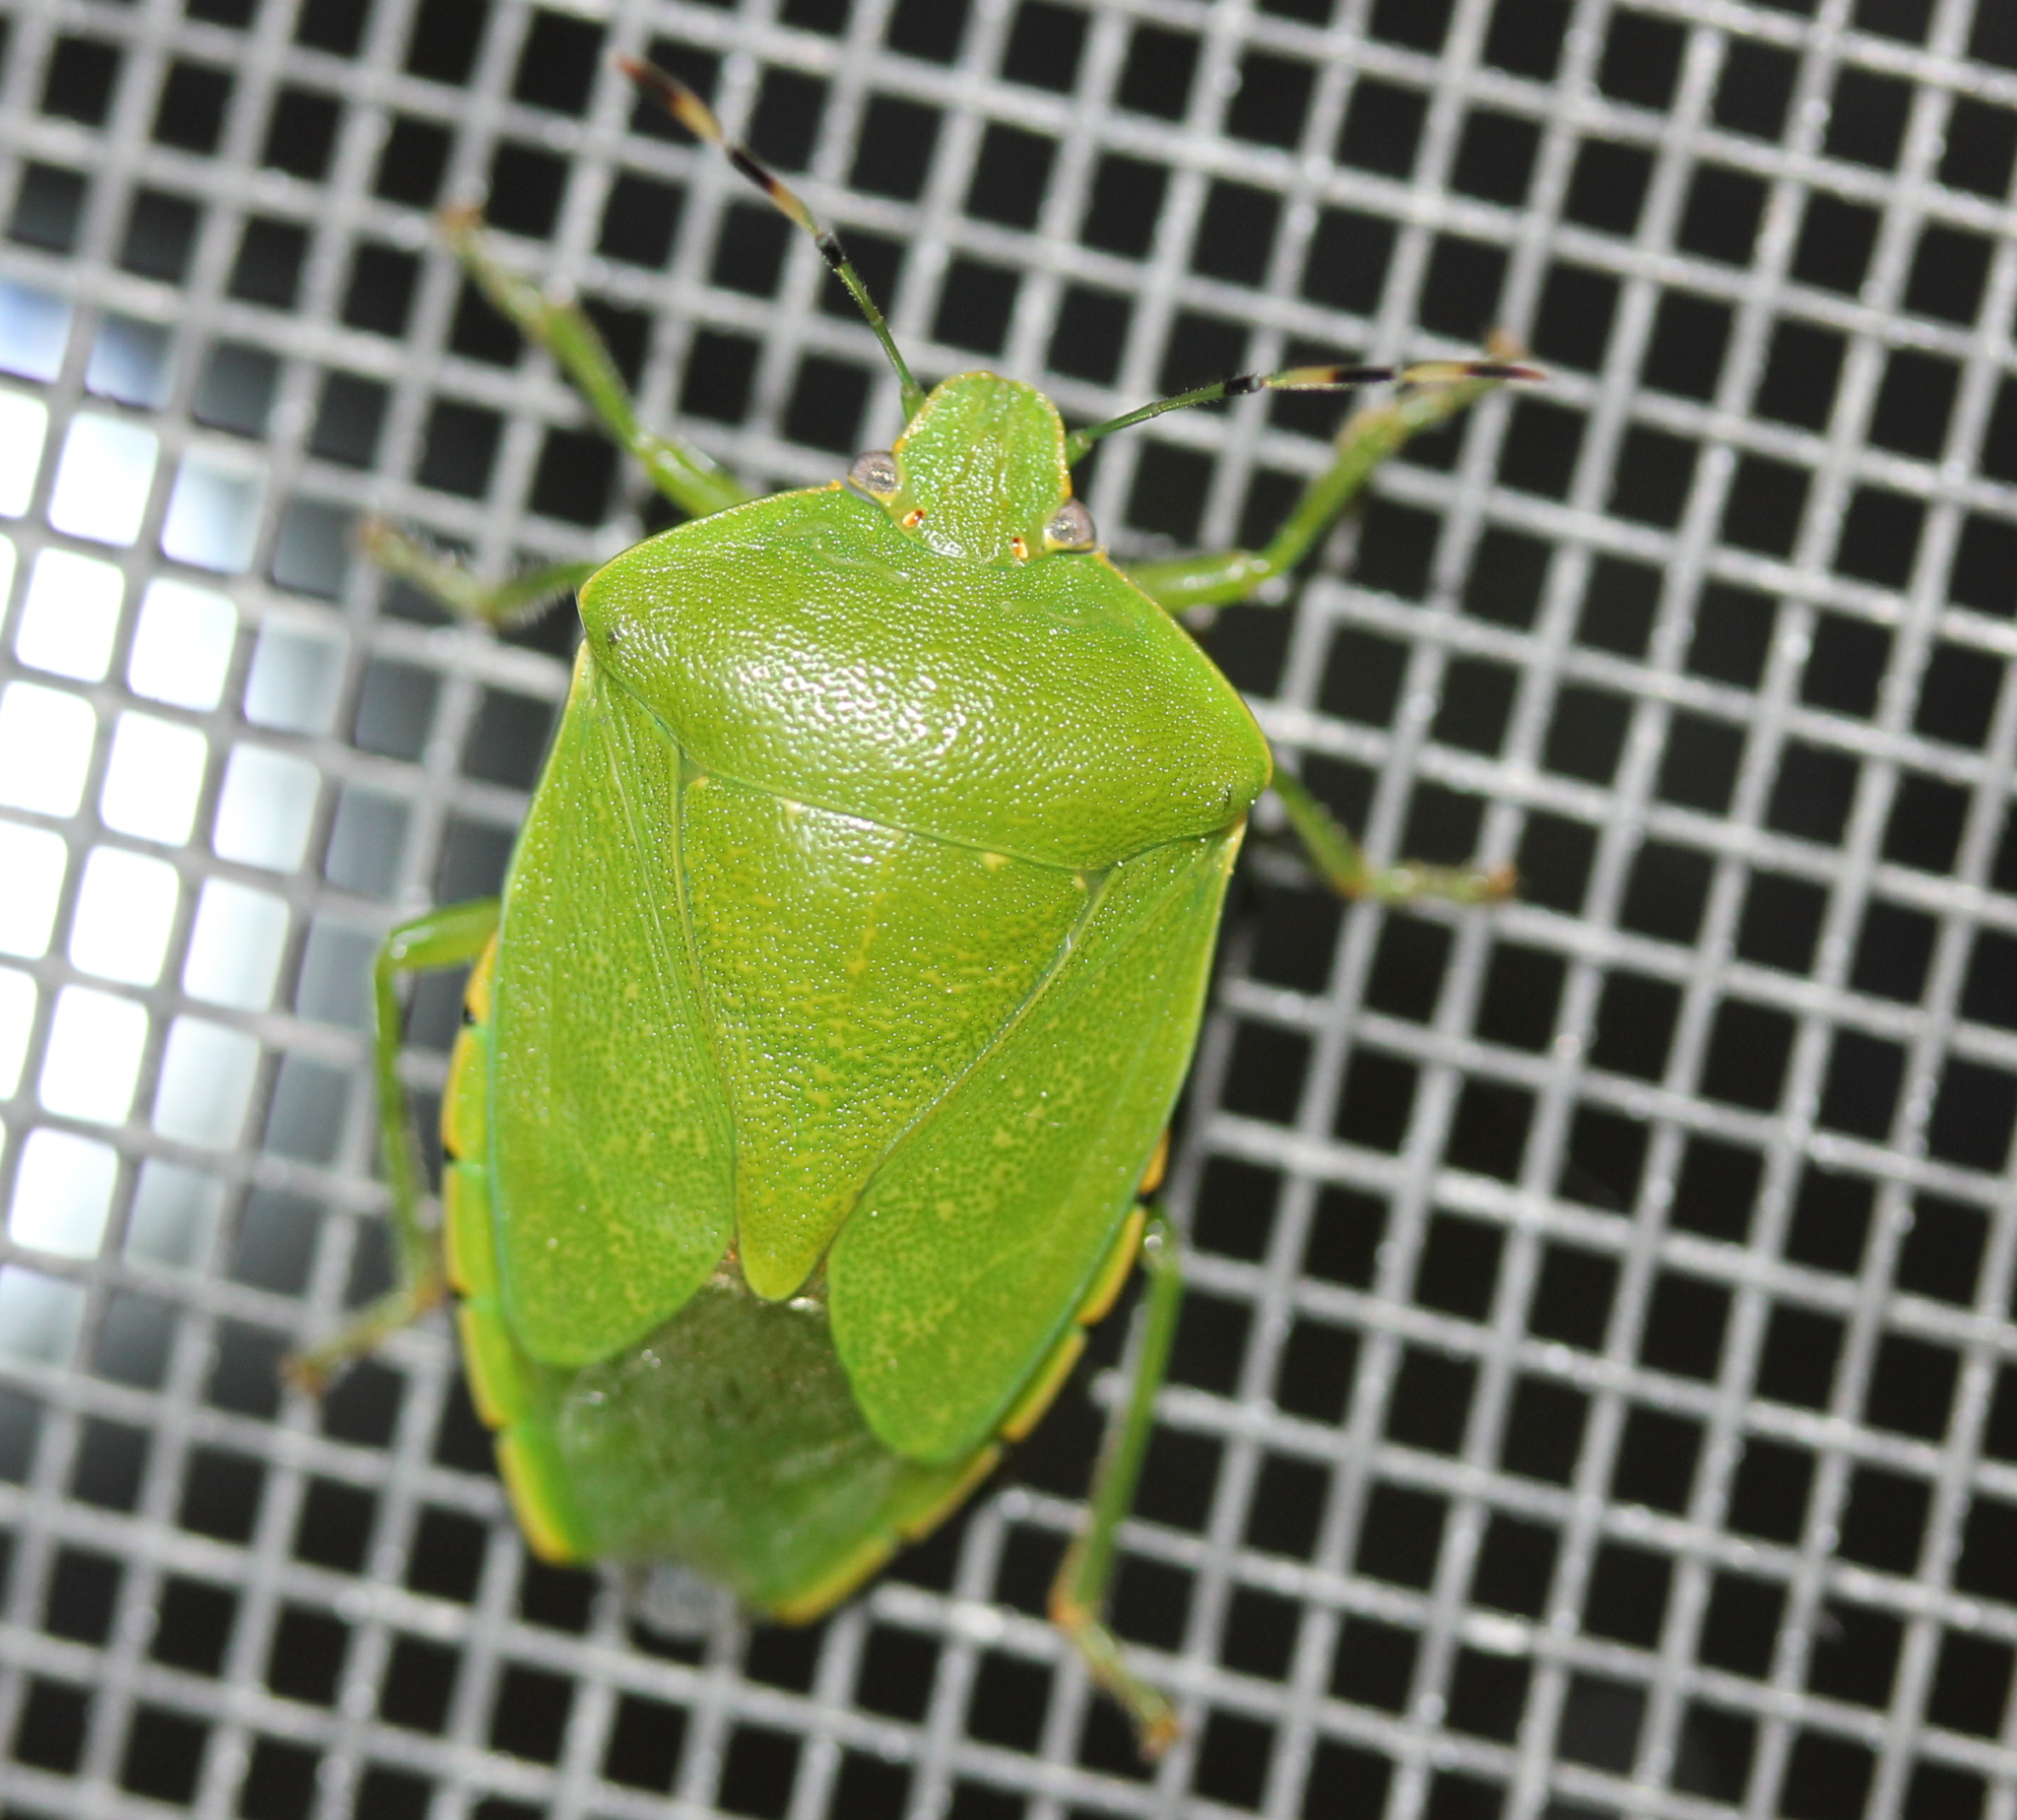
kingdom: Animalia
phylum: Arthropoda
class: Insecta
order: Hemiptera
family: Pentatomidae
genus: Chinavia
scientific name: Chinavia hilaris
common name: Green stink bug
